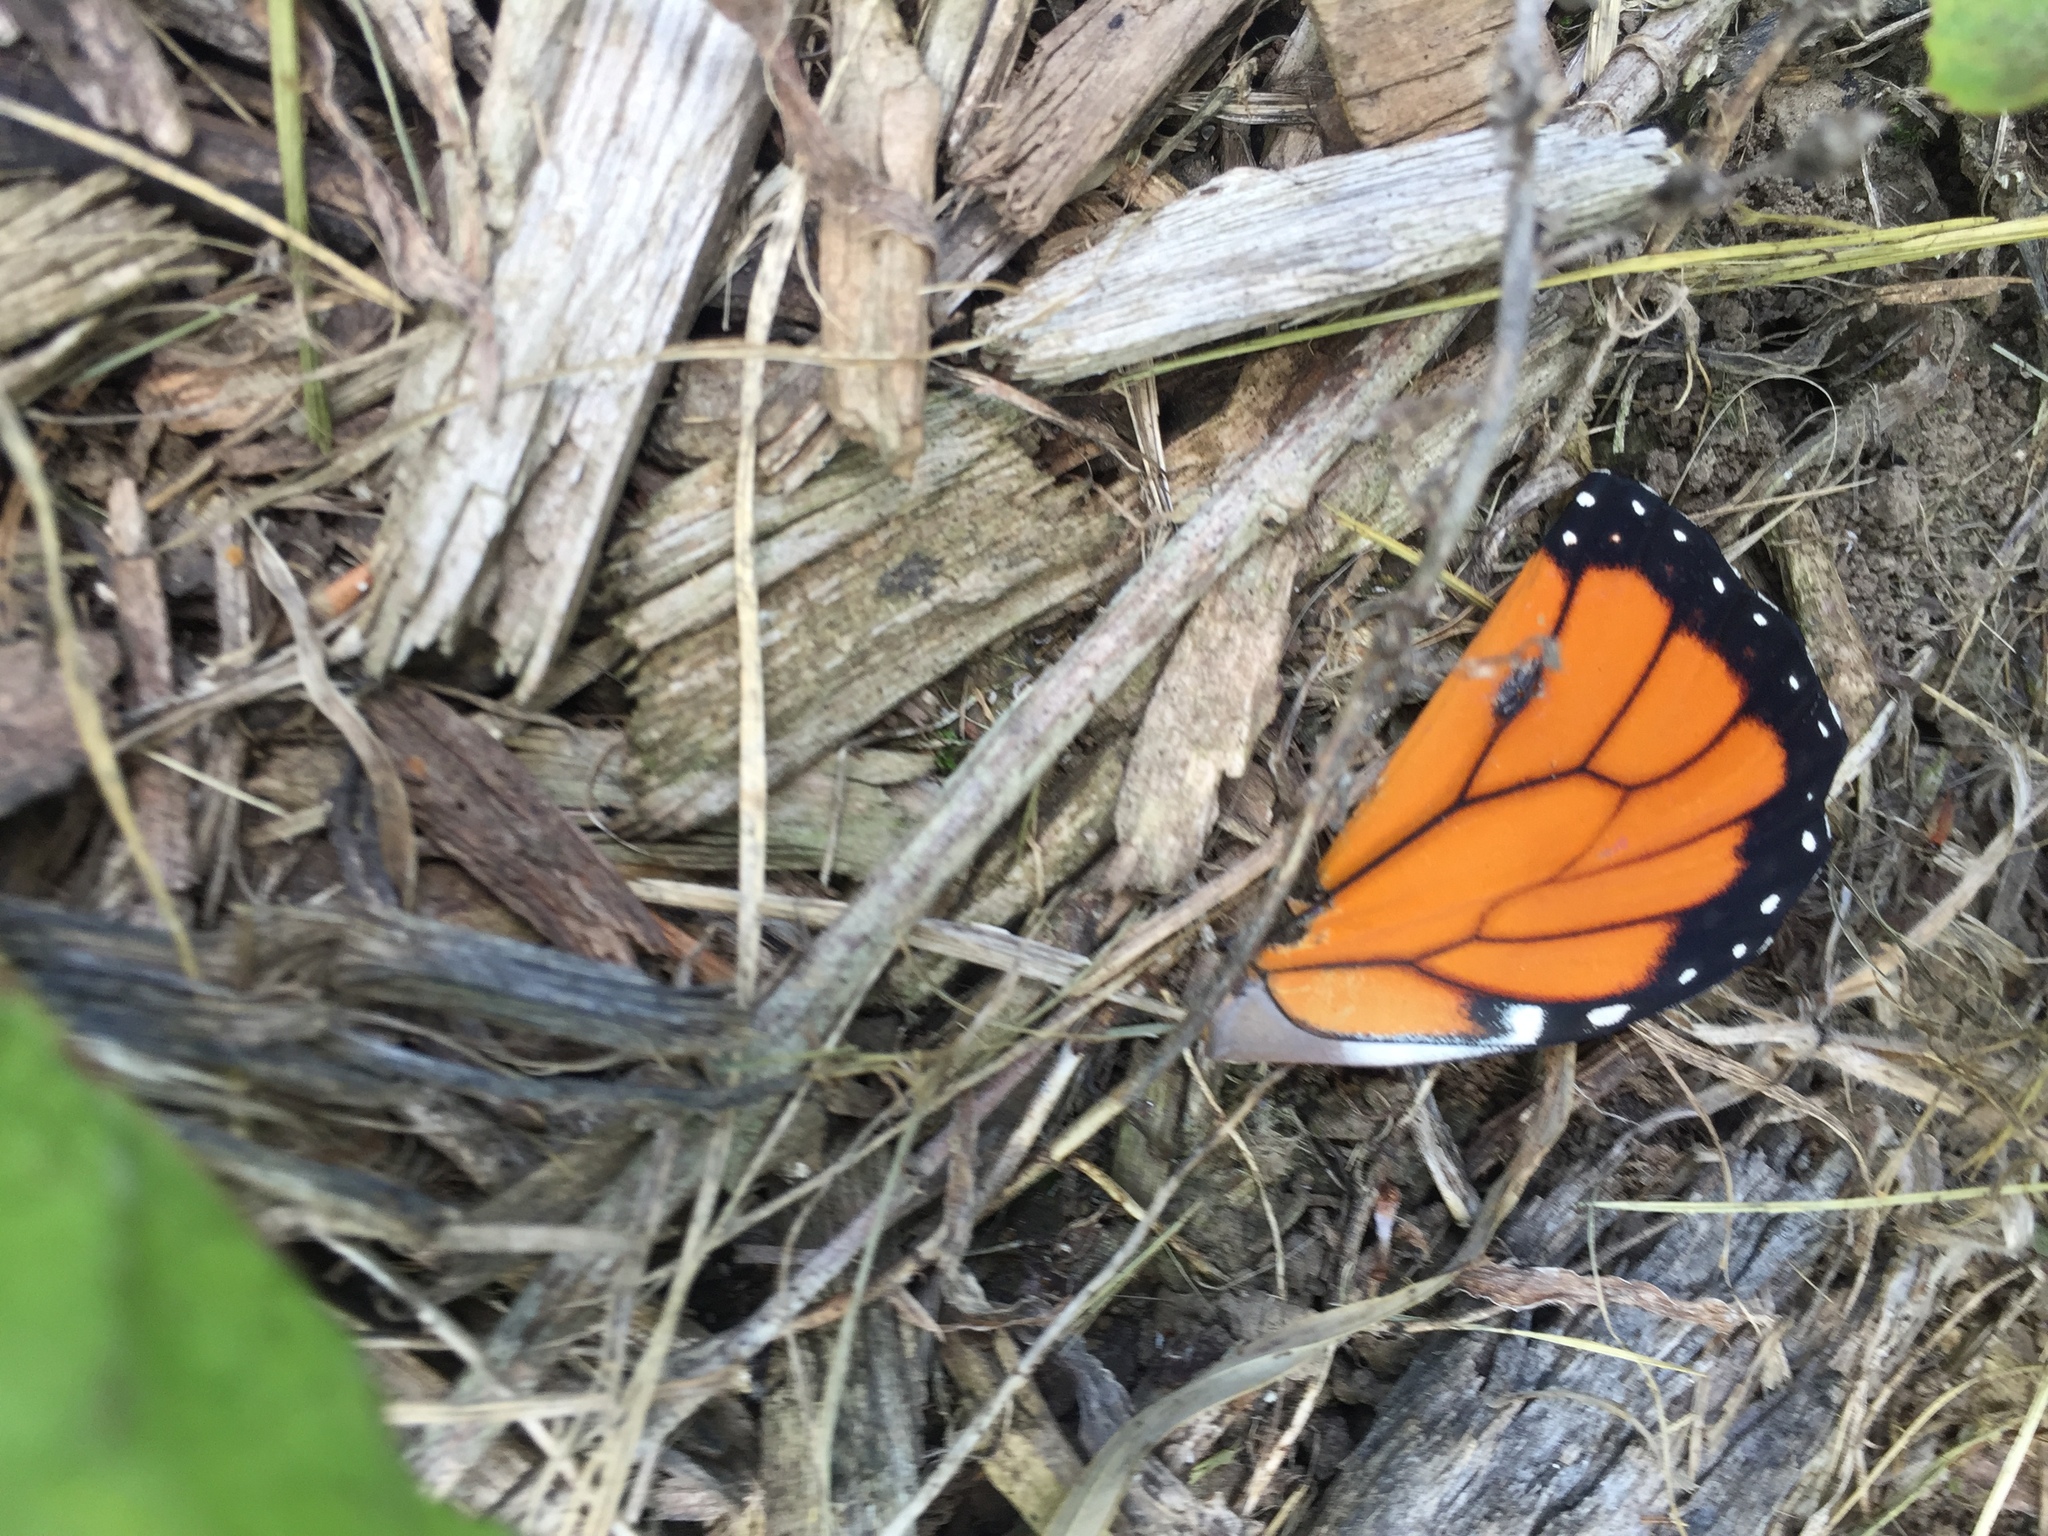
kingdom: Animalia
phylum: Arthropoda
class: Insecta
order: Lepidoptera
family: Nymphalidae
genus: Danaus
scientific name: Danaus plexippus
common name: Monarch
